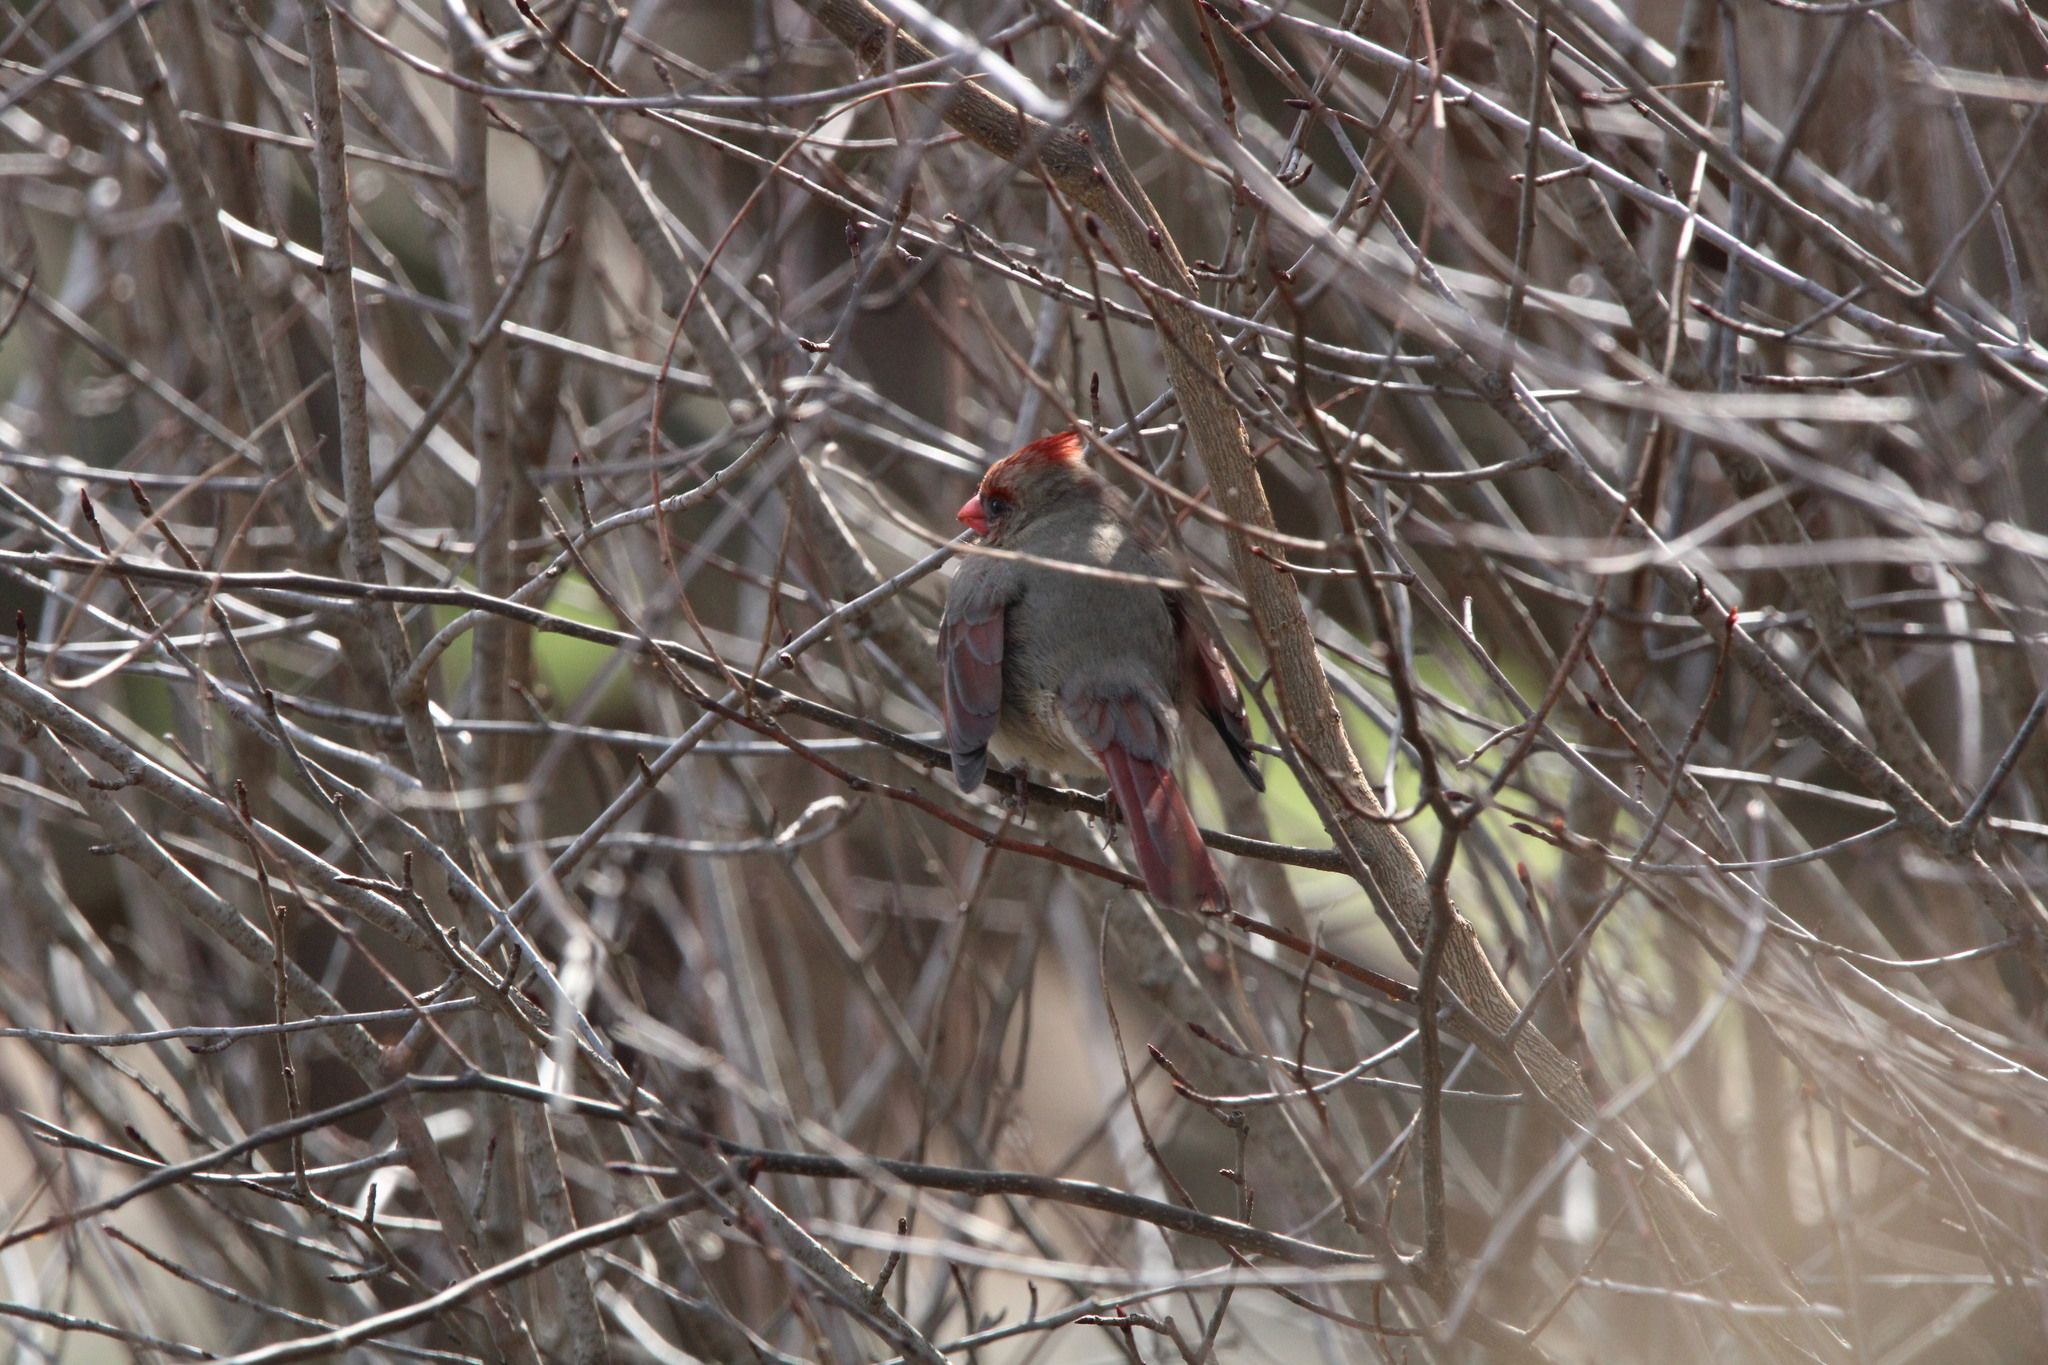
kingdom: Animalia
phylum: Chordata
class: Aves
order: Passeriformes
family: Cardinalidae
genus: Cardinalis
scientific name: Cardinalis cardinalis
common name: Northern cardinal
